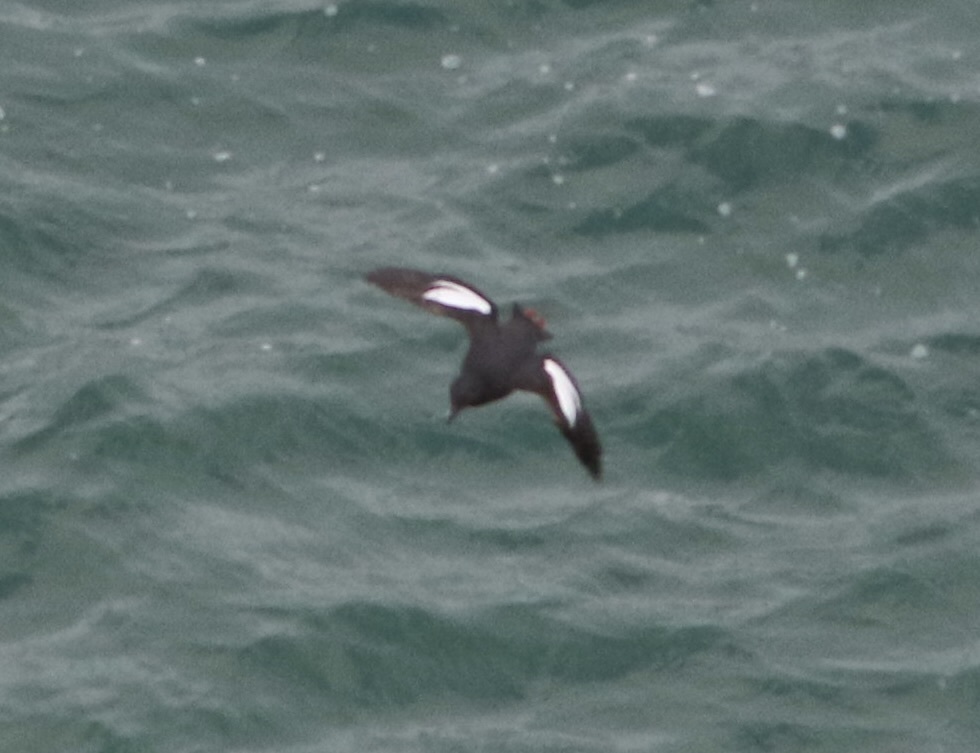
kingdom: Animalia
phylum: Chordata
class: Aves
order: Charadriiformes
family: Alcidae
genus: Cepphus
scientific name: Cepphus columba
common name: Pigeon guillemot
